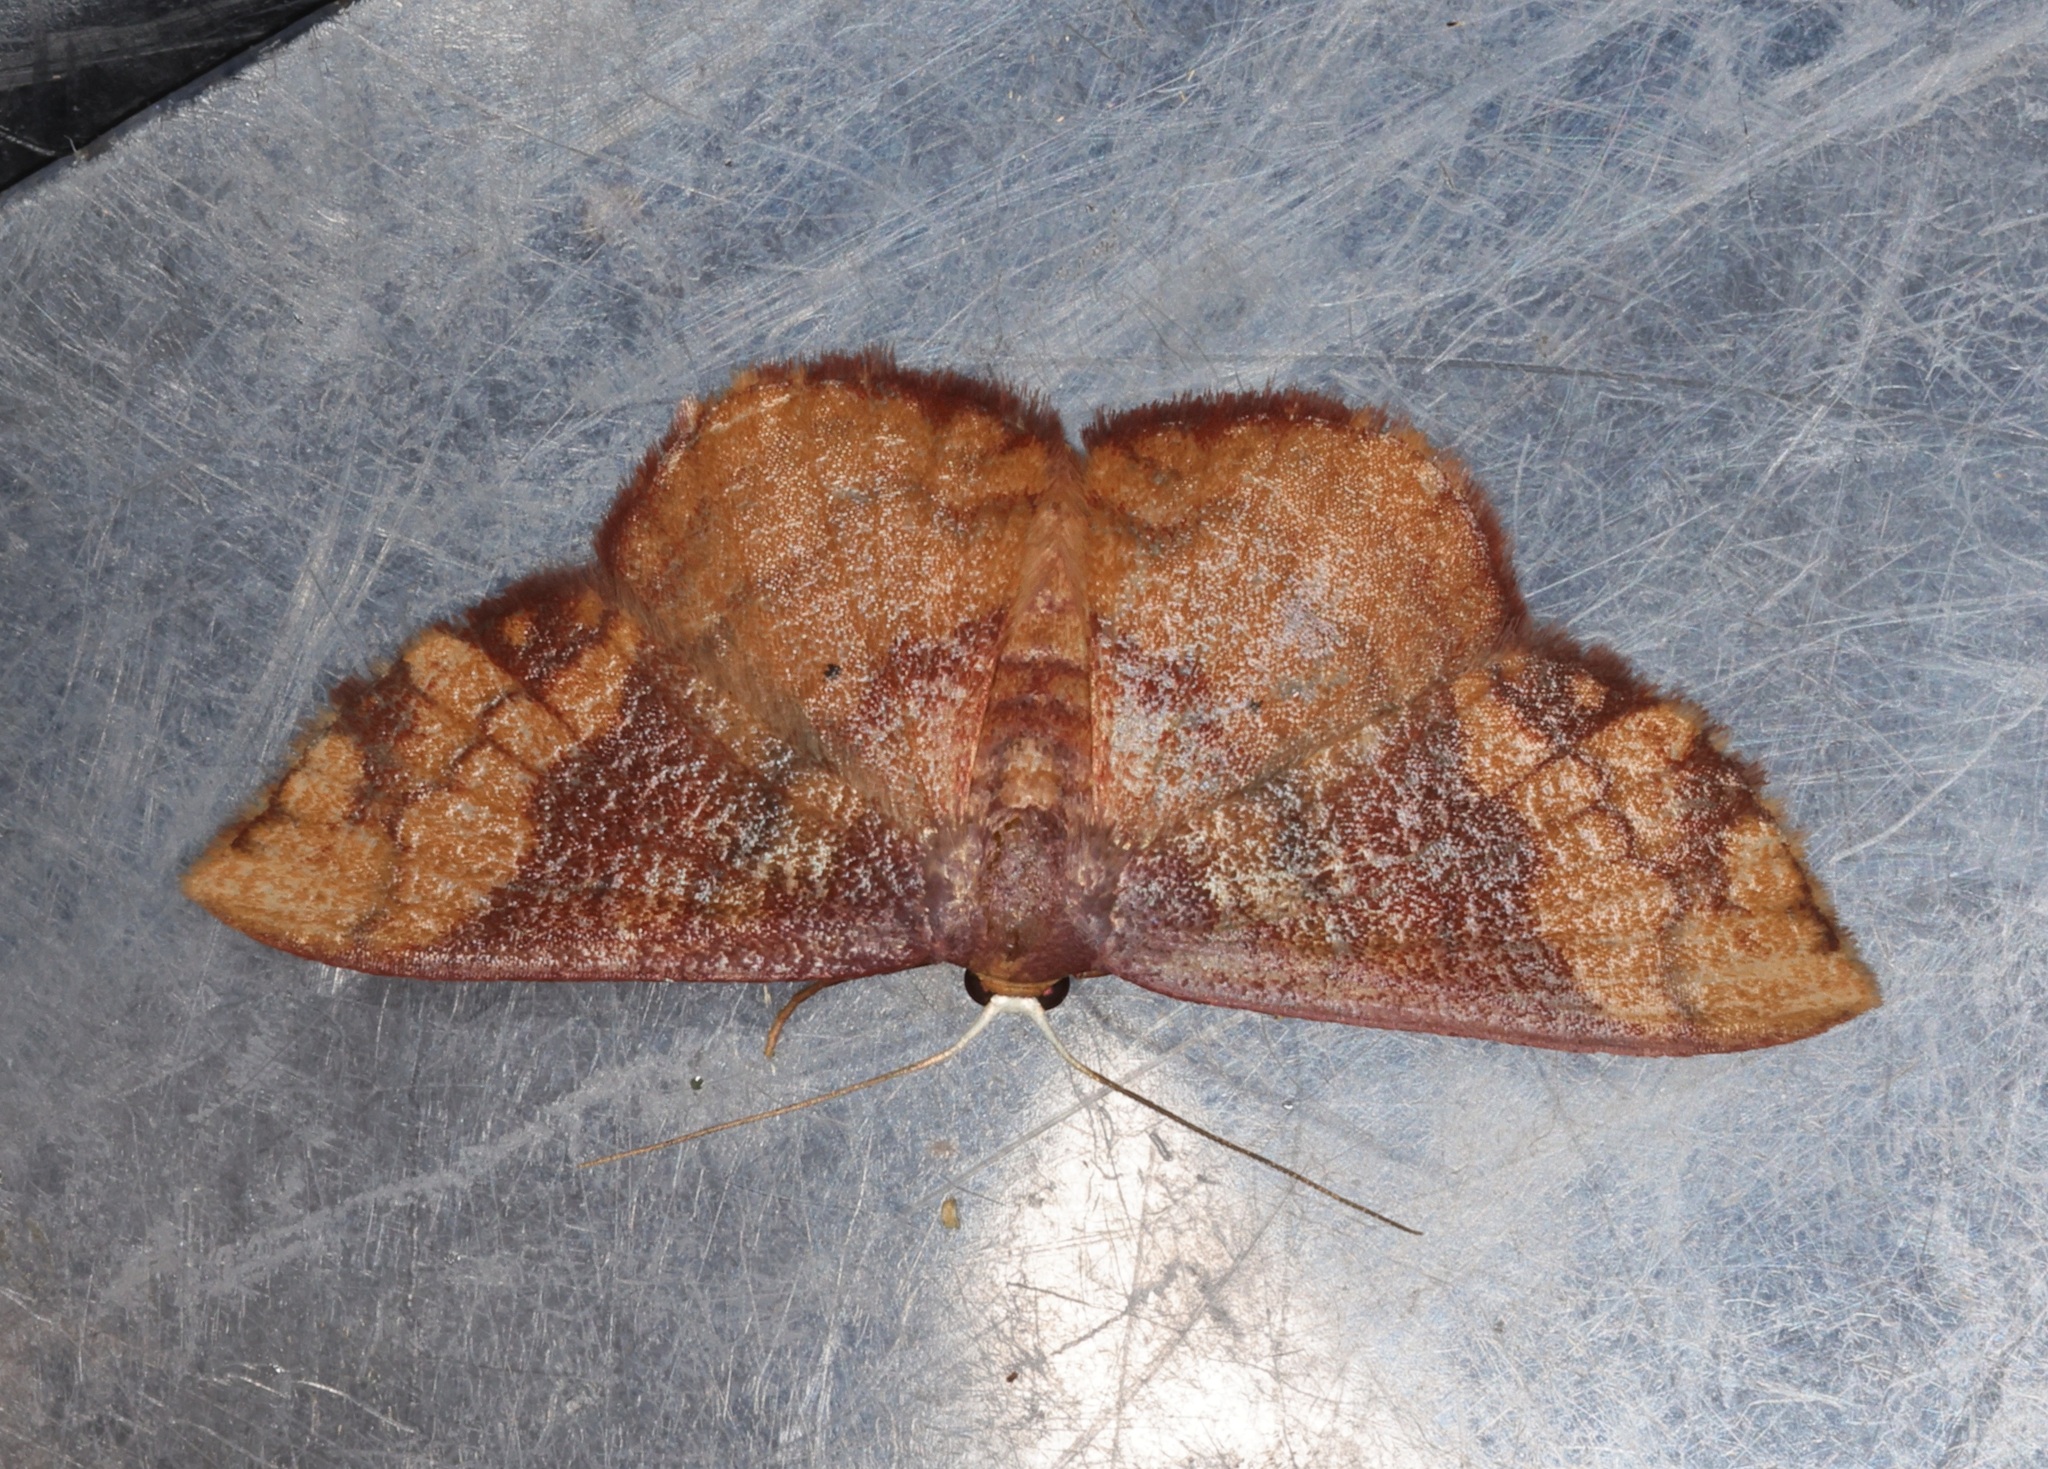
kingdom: Animalia
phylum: Arthropoda
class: Insecta
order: Lepidoptera
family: Geometridae
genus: Metallaxis
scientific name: Metallaxis
